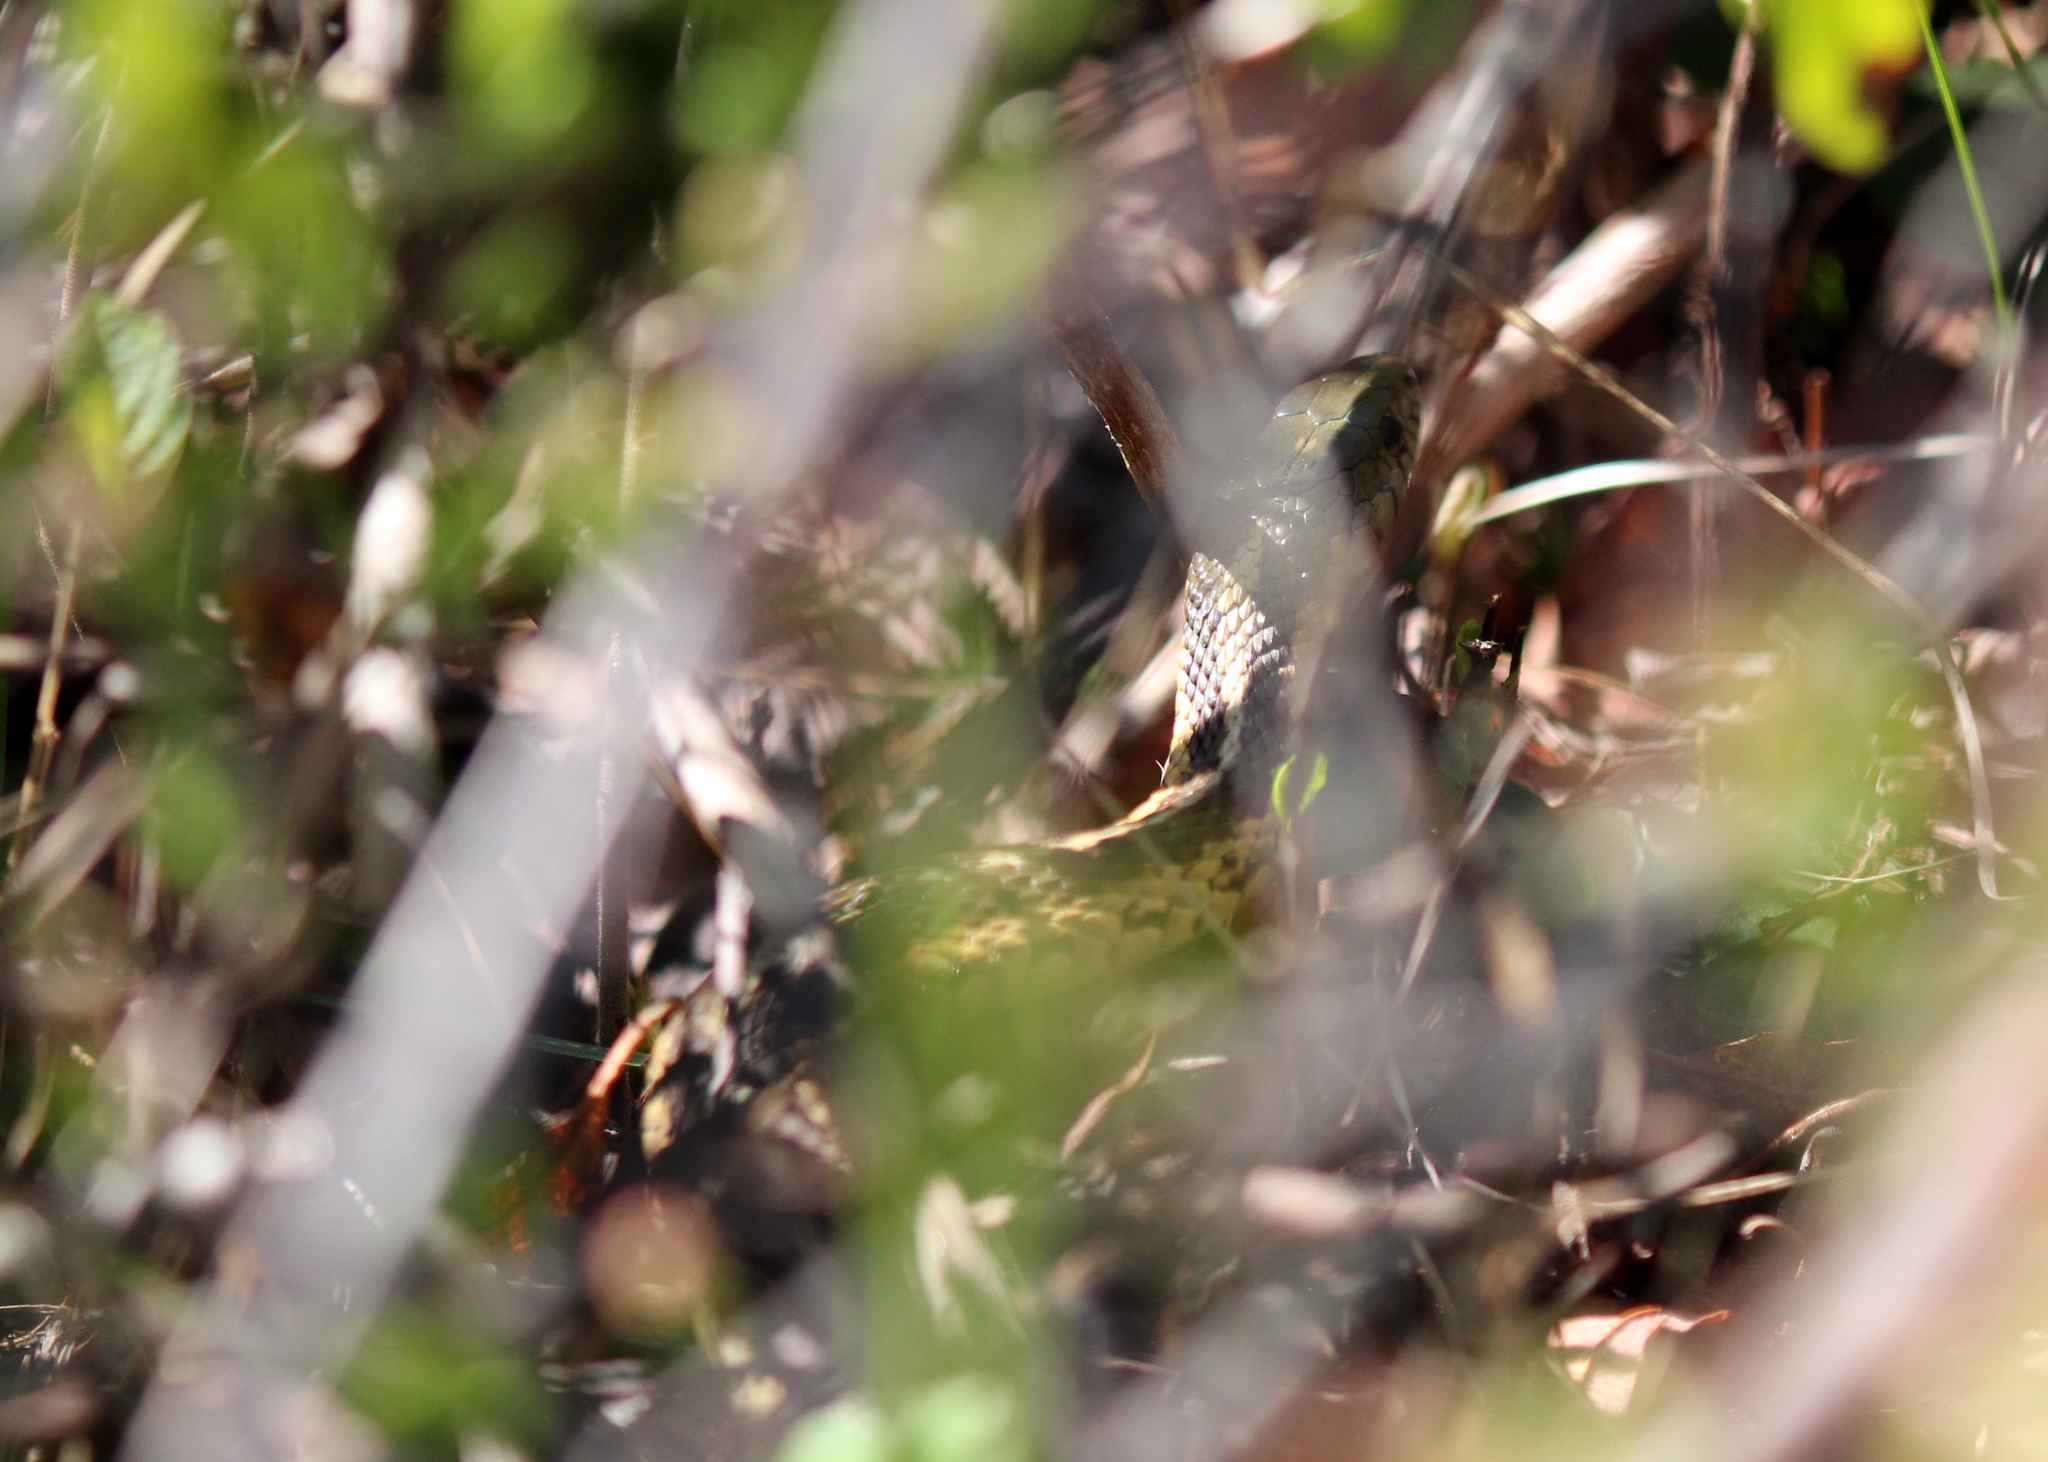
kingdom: Animalia
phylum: Chordata
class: Squamata
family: Colubridae
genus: Thamnophis
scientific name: Thamnophis sirtalis
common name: Common garter snake
